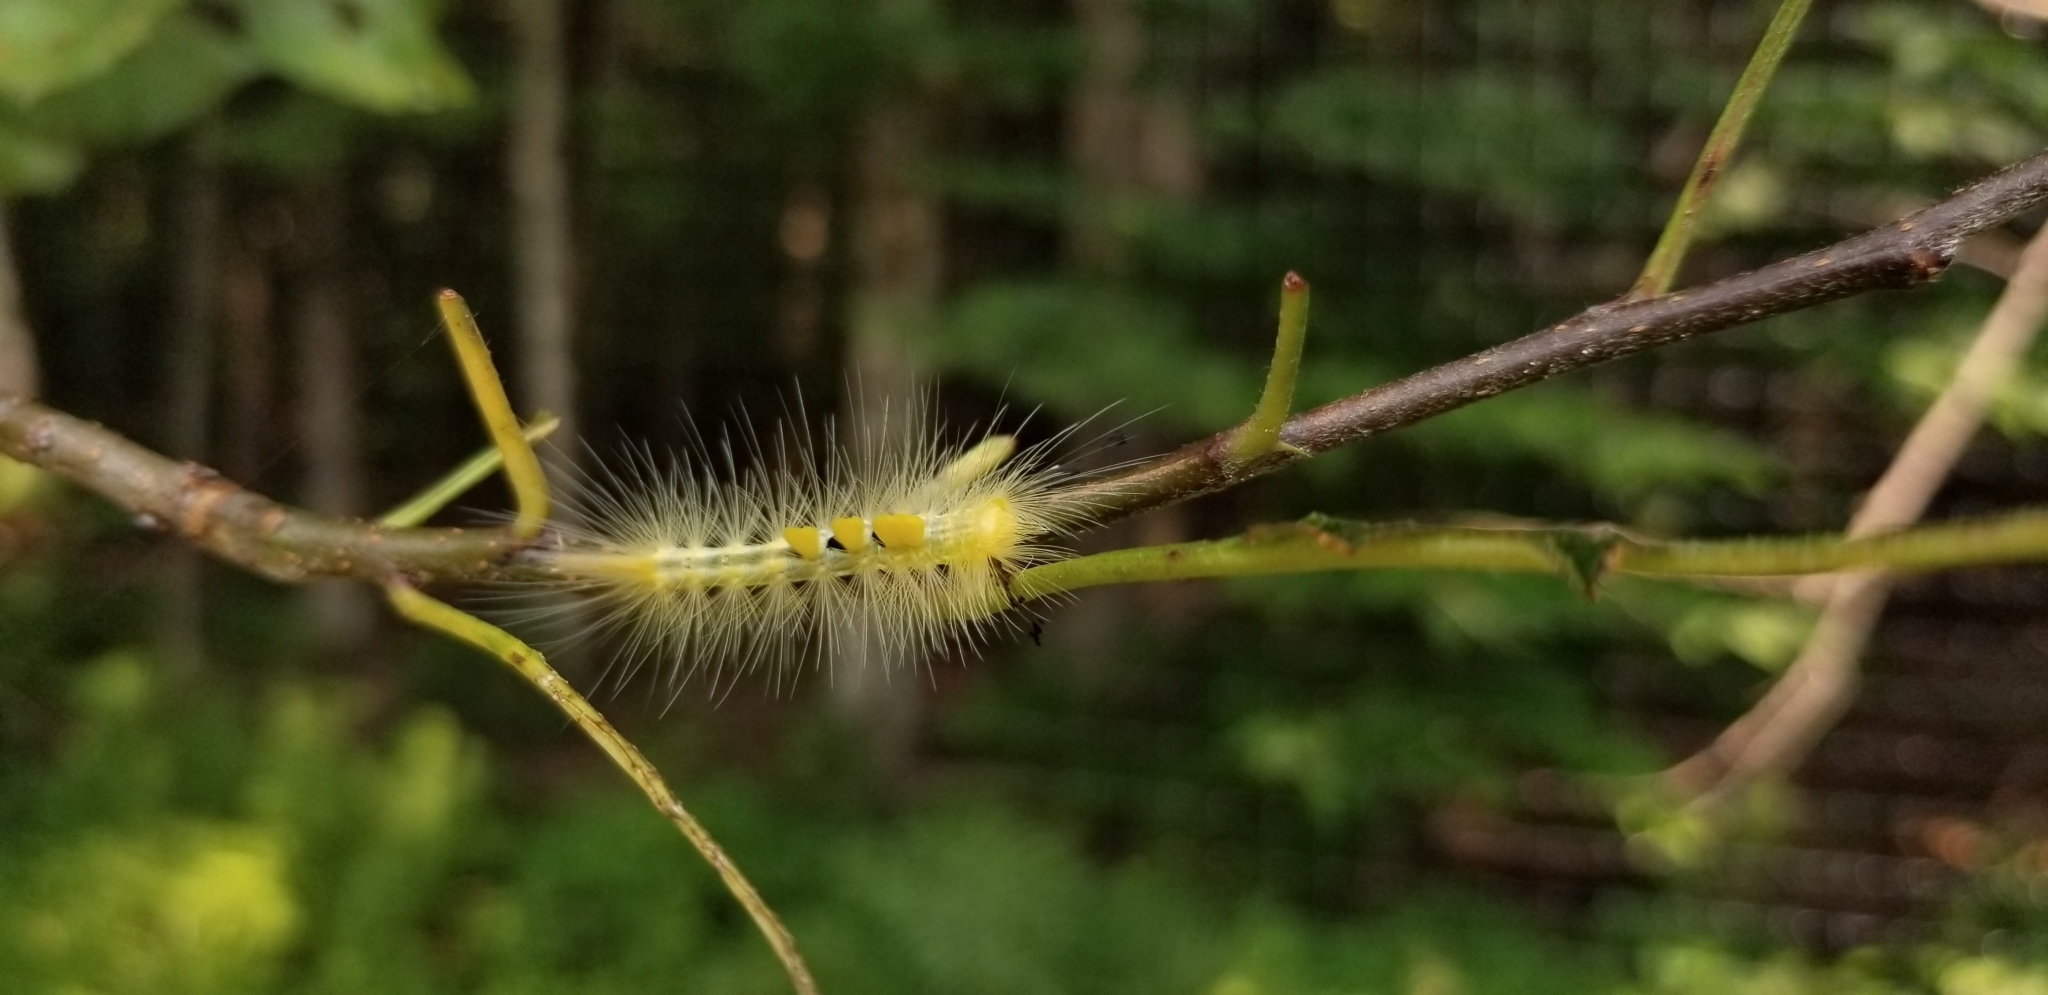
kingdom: Animalia
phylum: Arthropoda
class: Insecta
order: Lepidoptera
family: Erebidae
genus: Orgyia
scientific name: Orgyia definita
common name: Definite tussock moth
